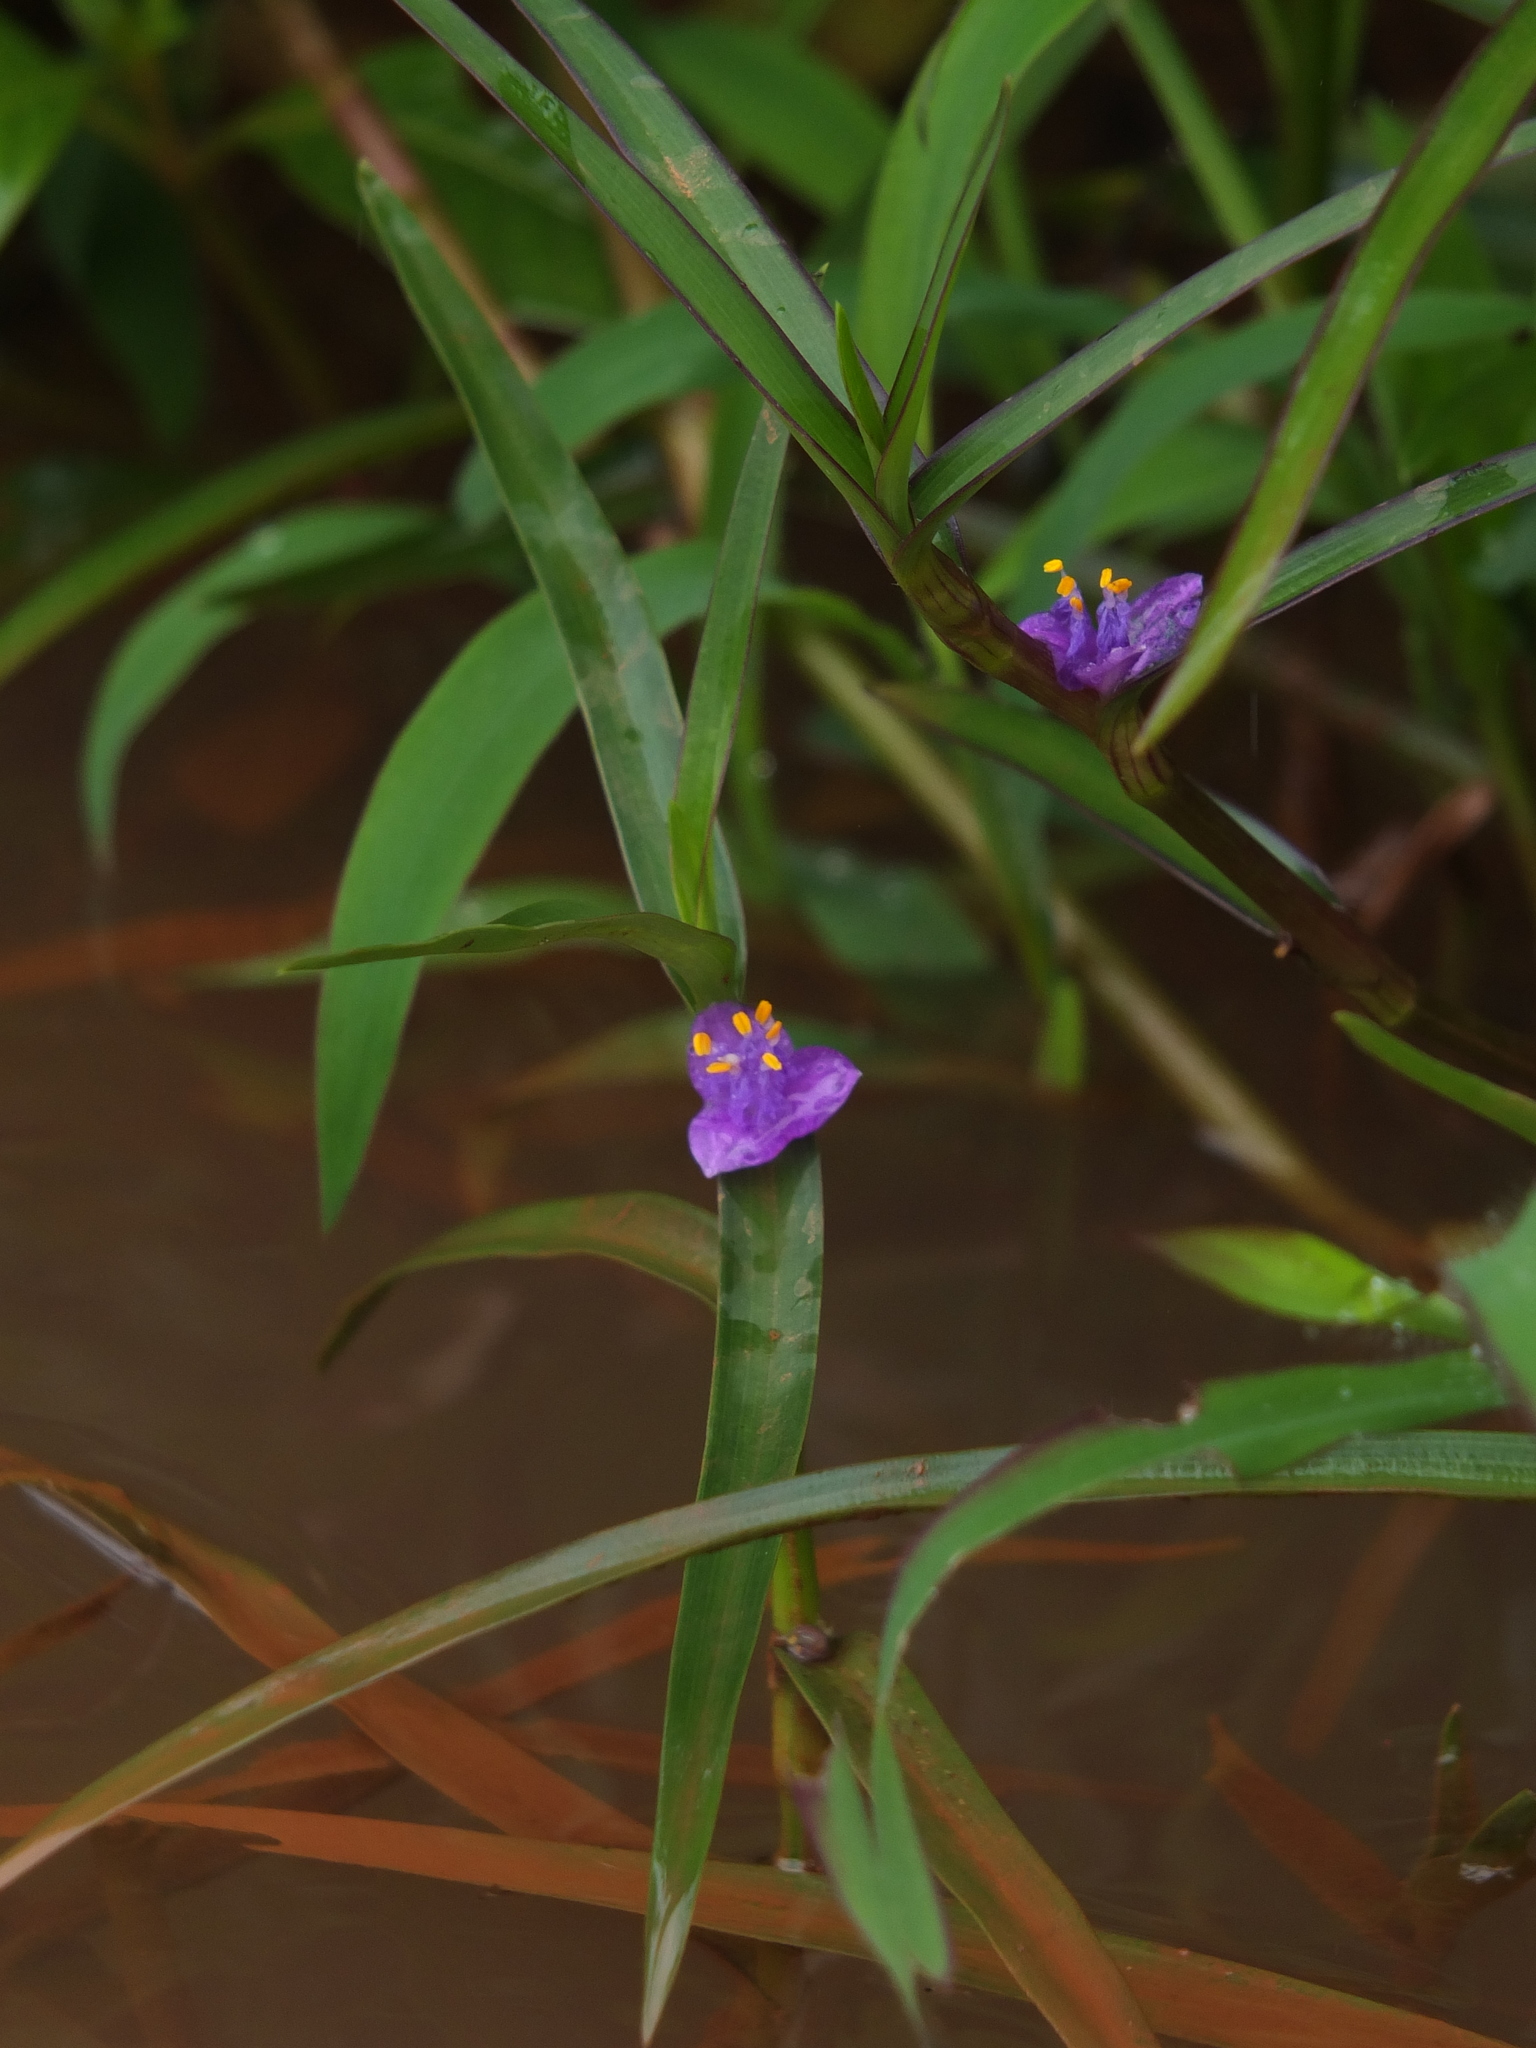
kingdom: Plantae
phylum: Tracheophyta
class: Liliopsida
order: Commelinales
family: Commelinaceae
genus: Cyanotis
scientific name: Cyanotis axillaris
